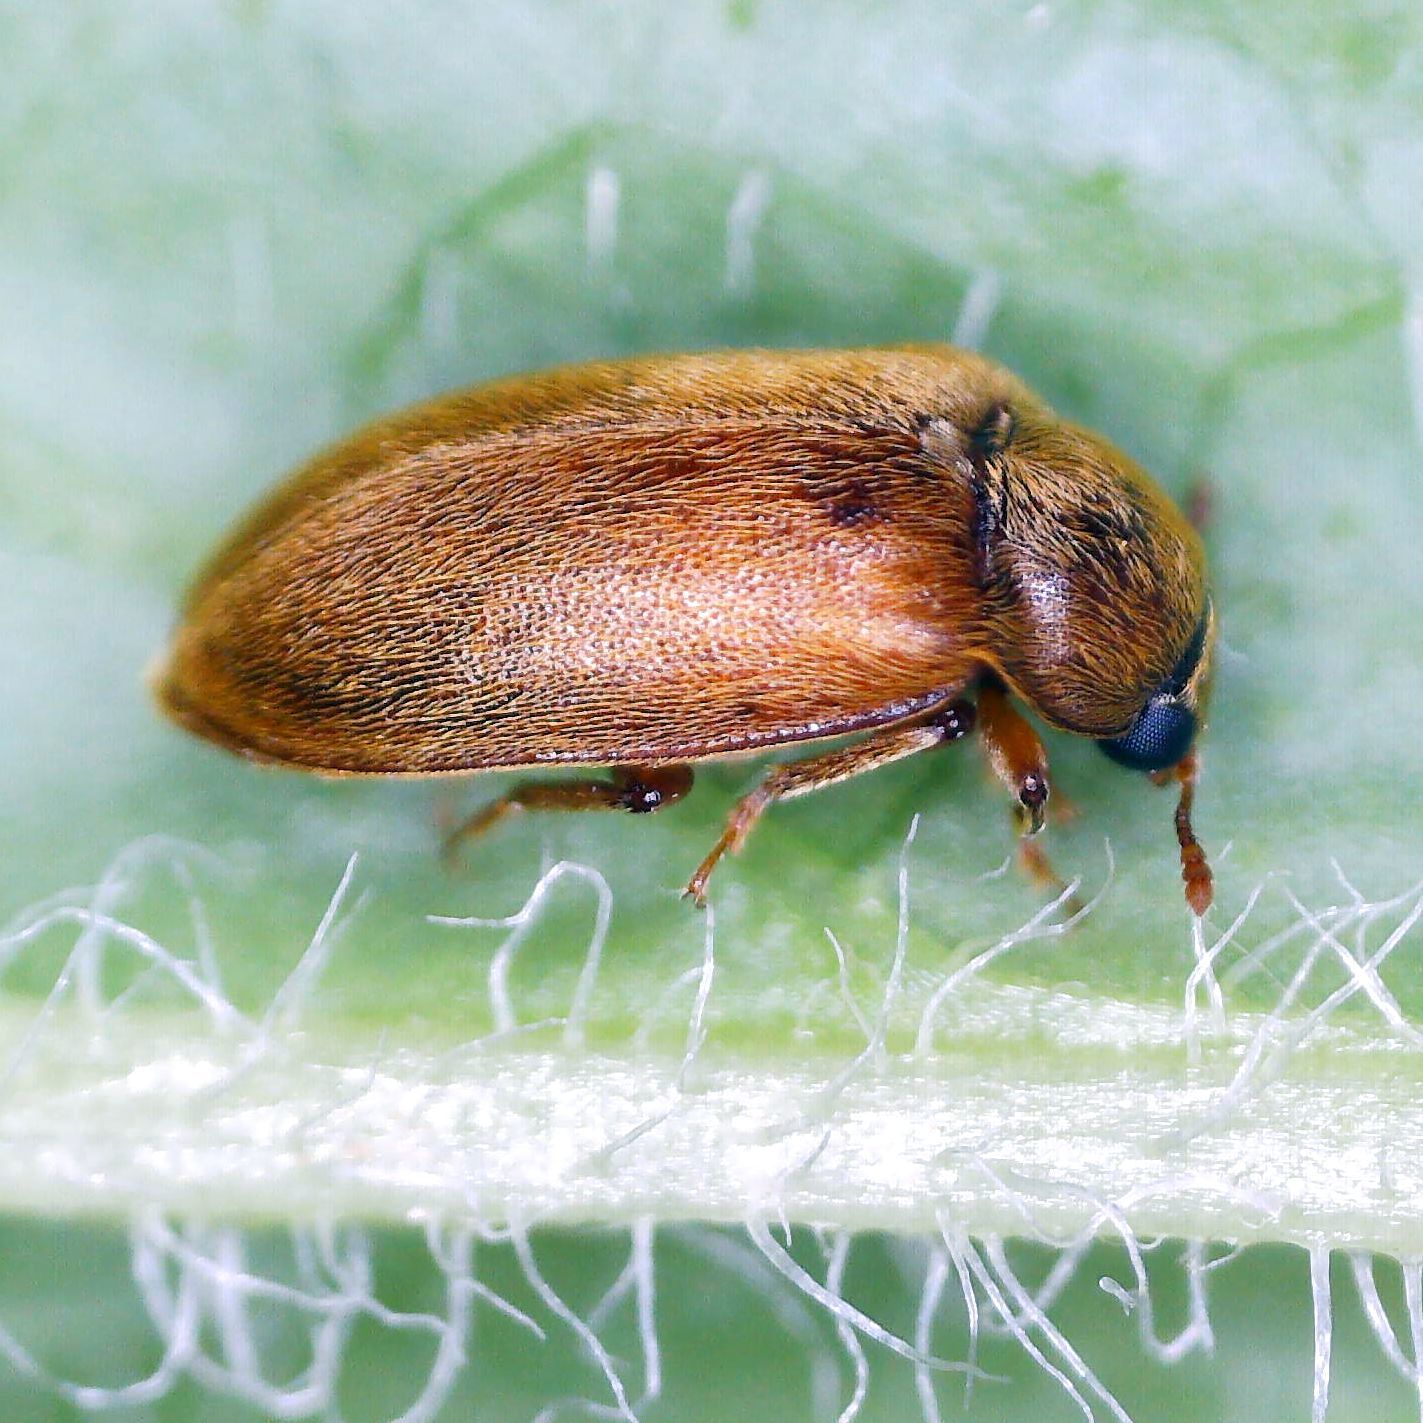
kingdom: Animalia
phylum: Arthropoda
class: Insecta
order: Coleoptera
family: Byturidae
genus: Byturus
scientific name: Byturus ochraceus
